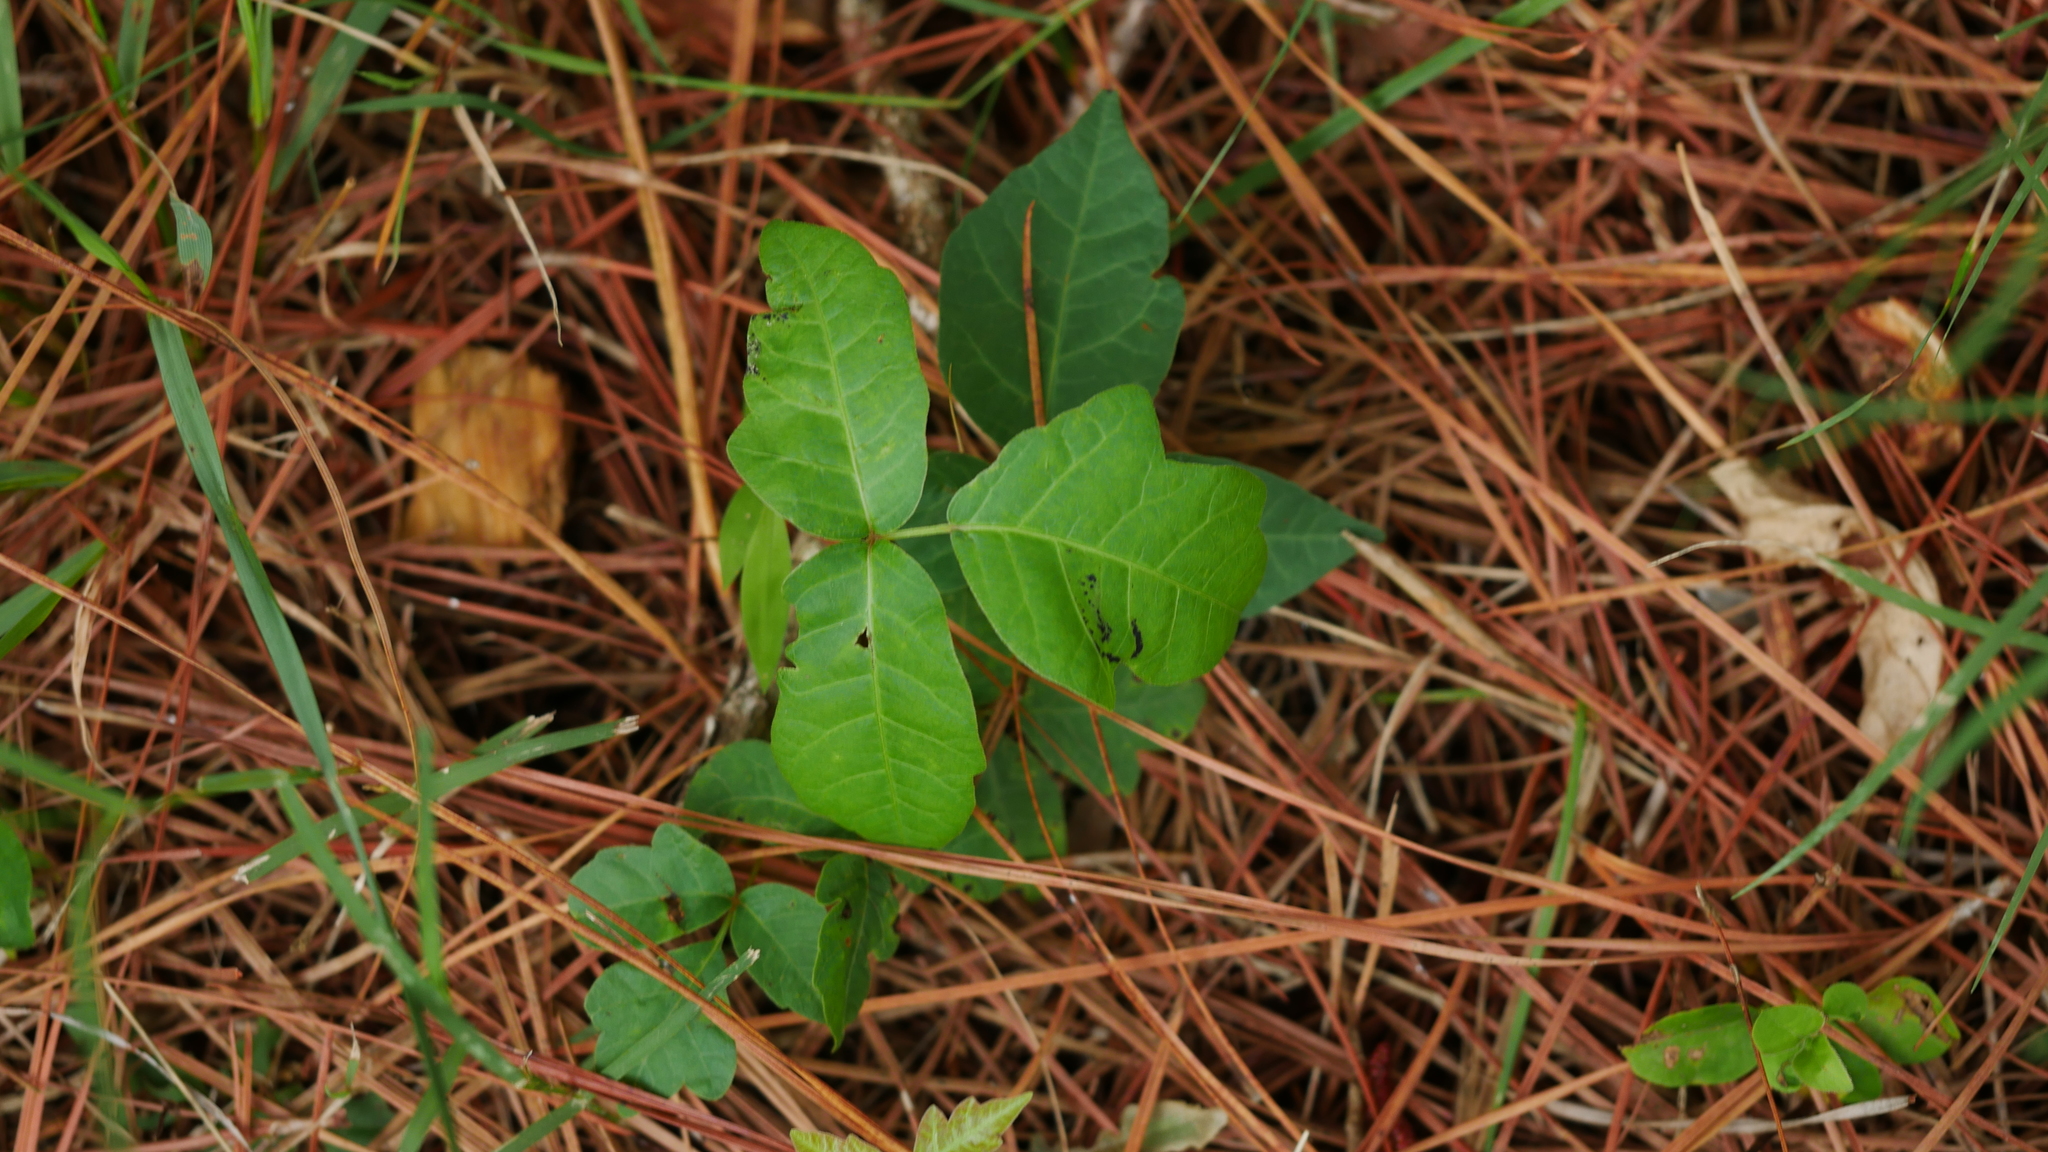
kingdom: Plantae
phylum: Tracheophyta
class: Magnoliopsida
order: Sapindales
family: Anacardiaceae
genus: Toxicodendron
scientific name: Toxicodendron radicans
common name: Poison ivy
